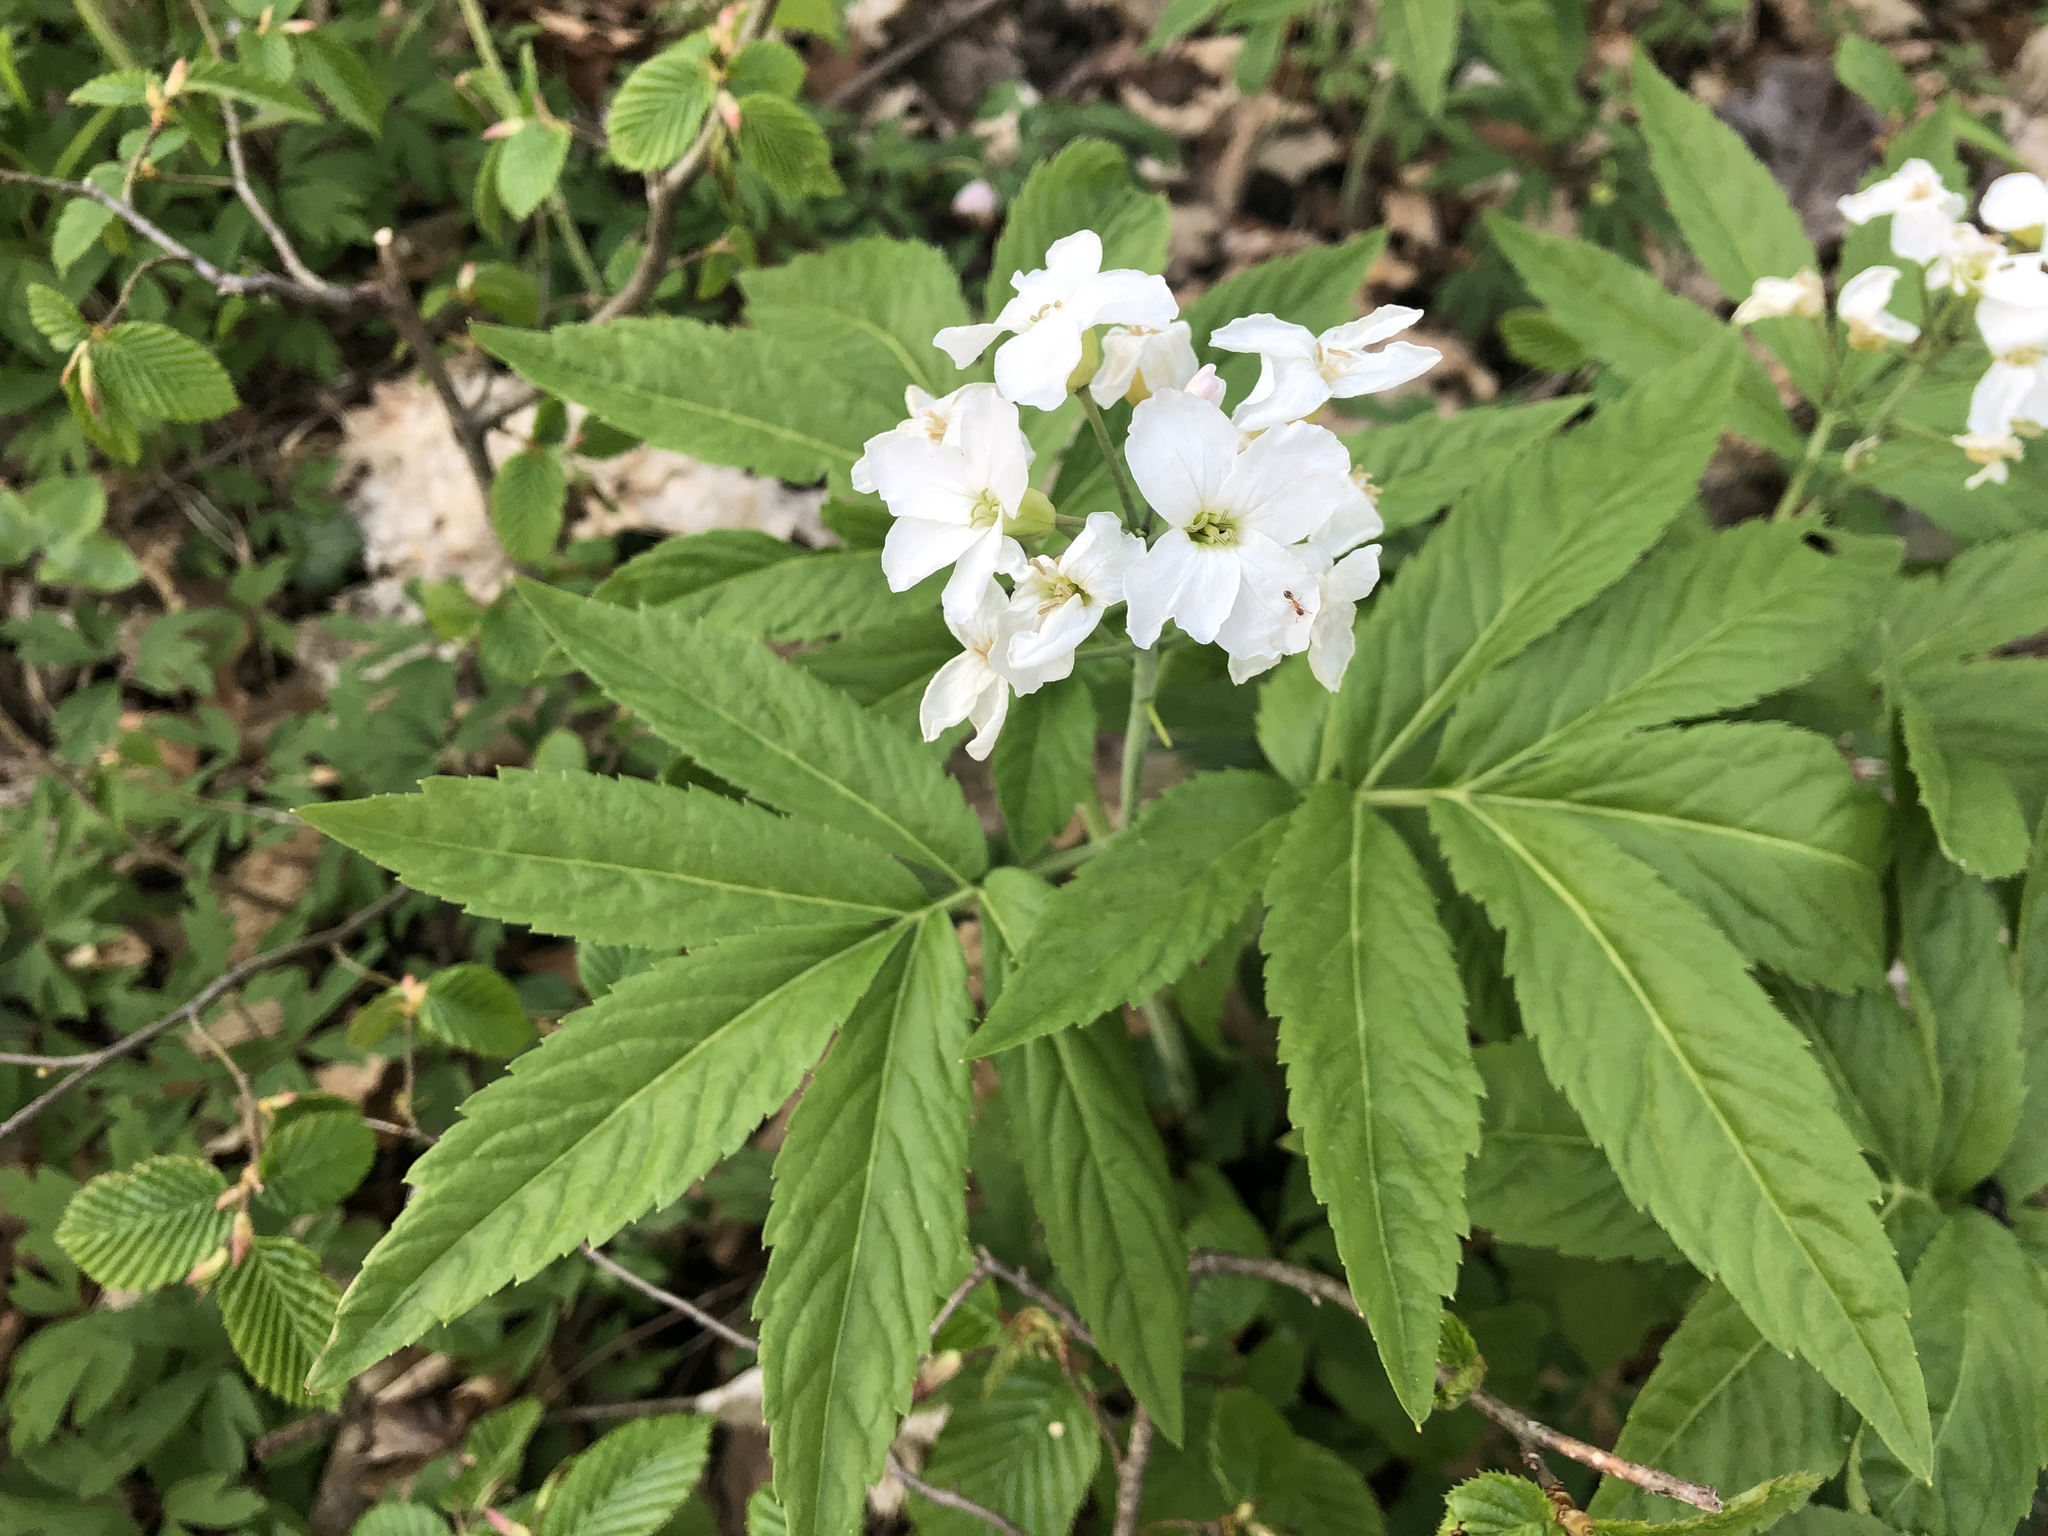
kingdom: Plantae
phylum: Tracheophyta
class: Magnoliopsida
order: Brassicales
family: Brassicaceae
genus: Cardamine
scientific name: Cardamine heptaphylla
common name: Pinnate coralroot
